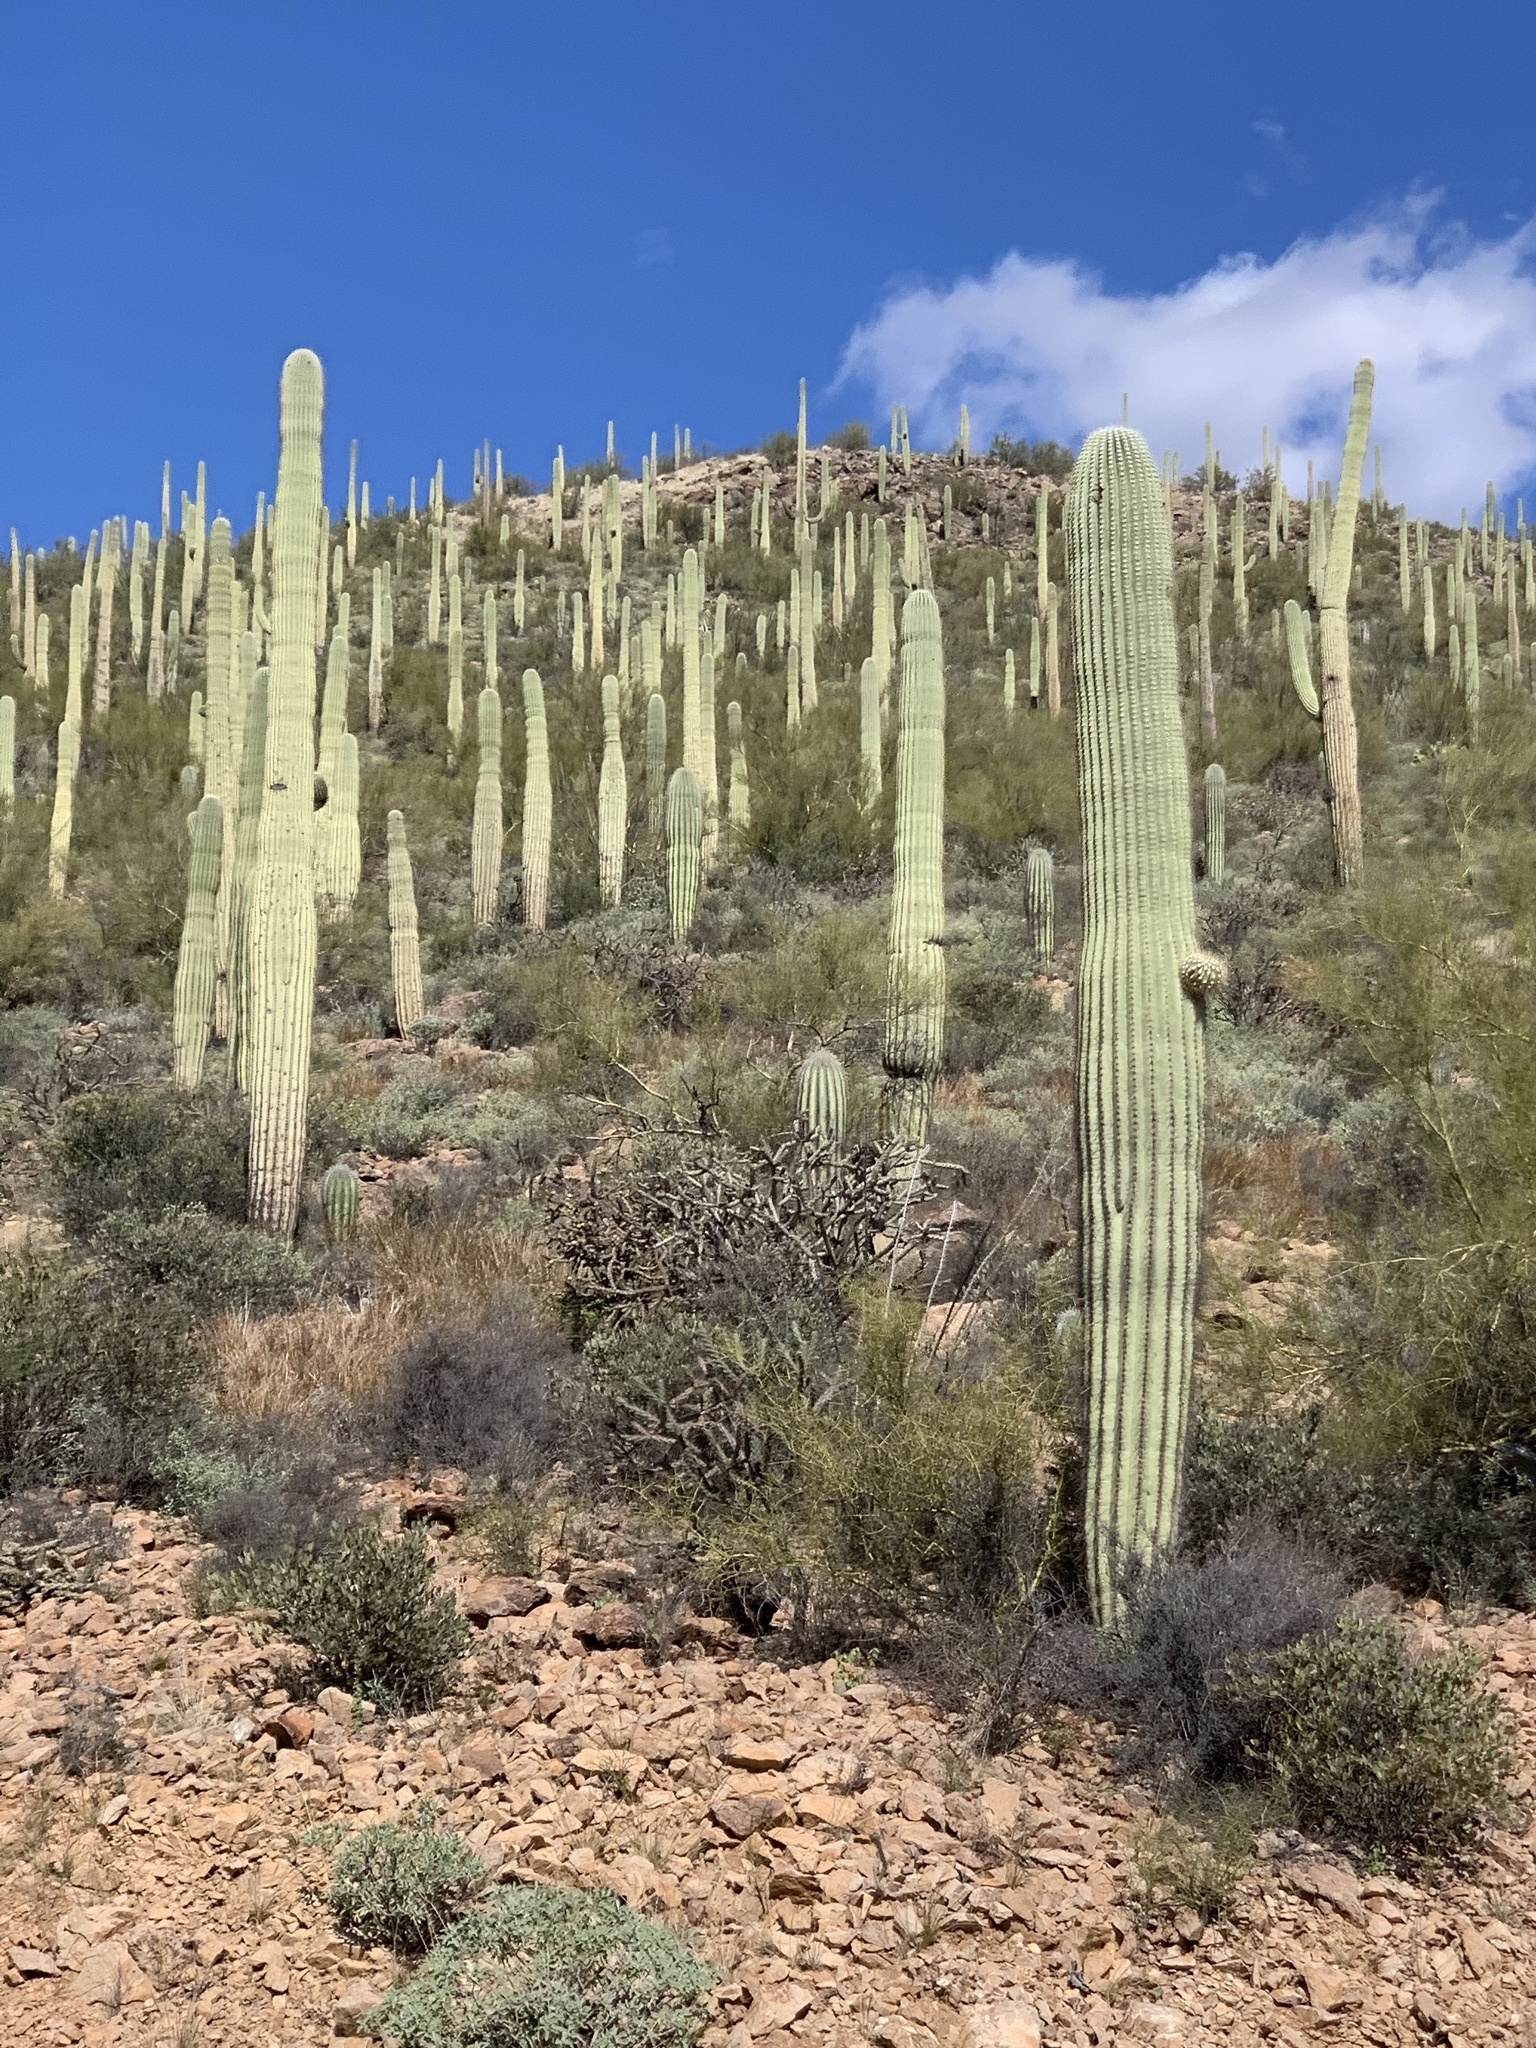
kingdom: Plantae
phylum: Tracheophyta
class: Magnoliopsida
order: Caryophyllales
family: Cactaceae
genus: Carnegiea
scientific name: Carnegiea gigantea
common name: Saguaro
